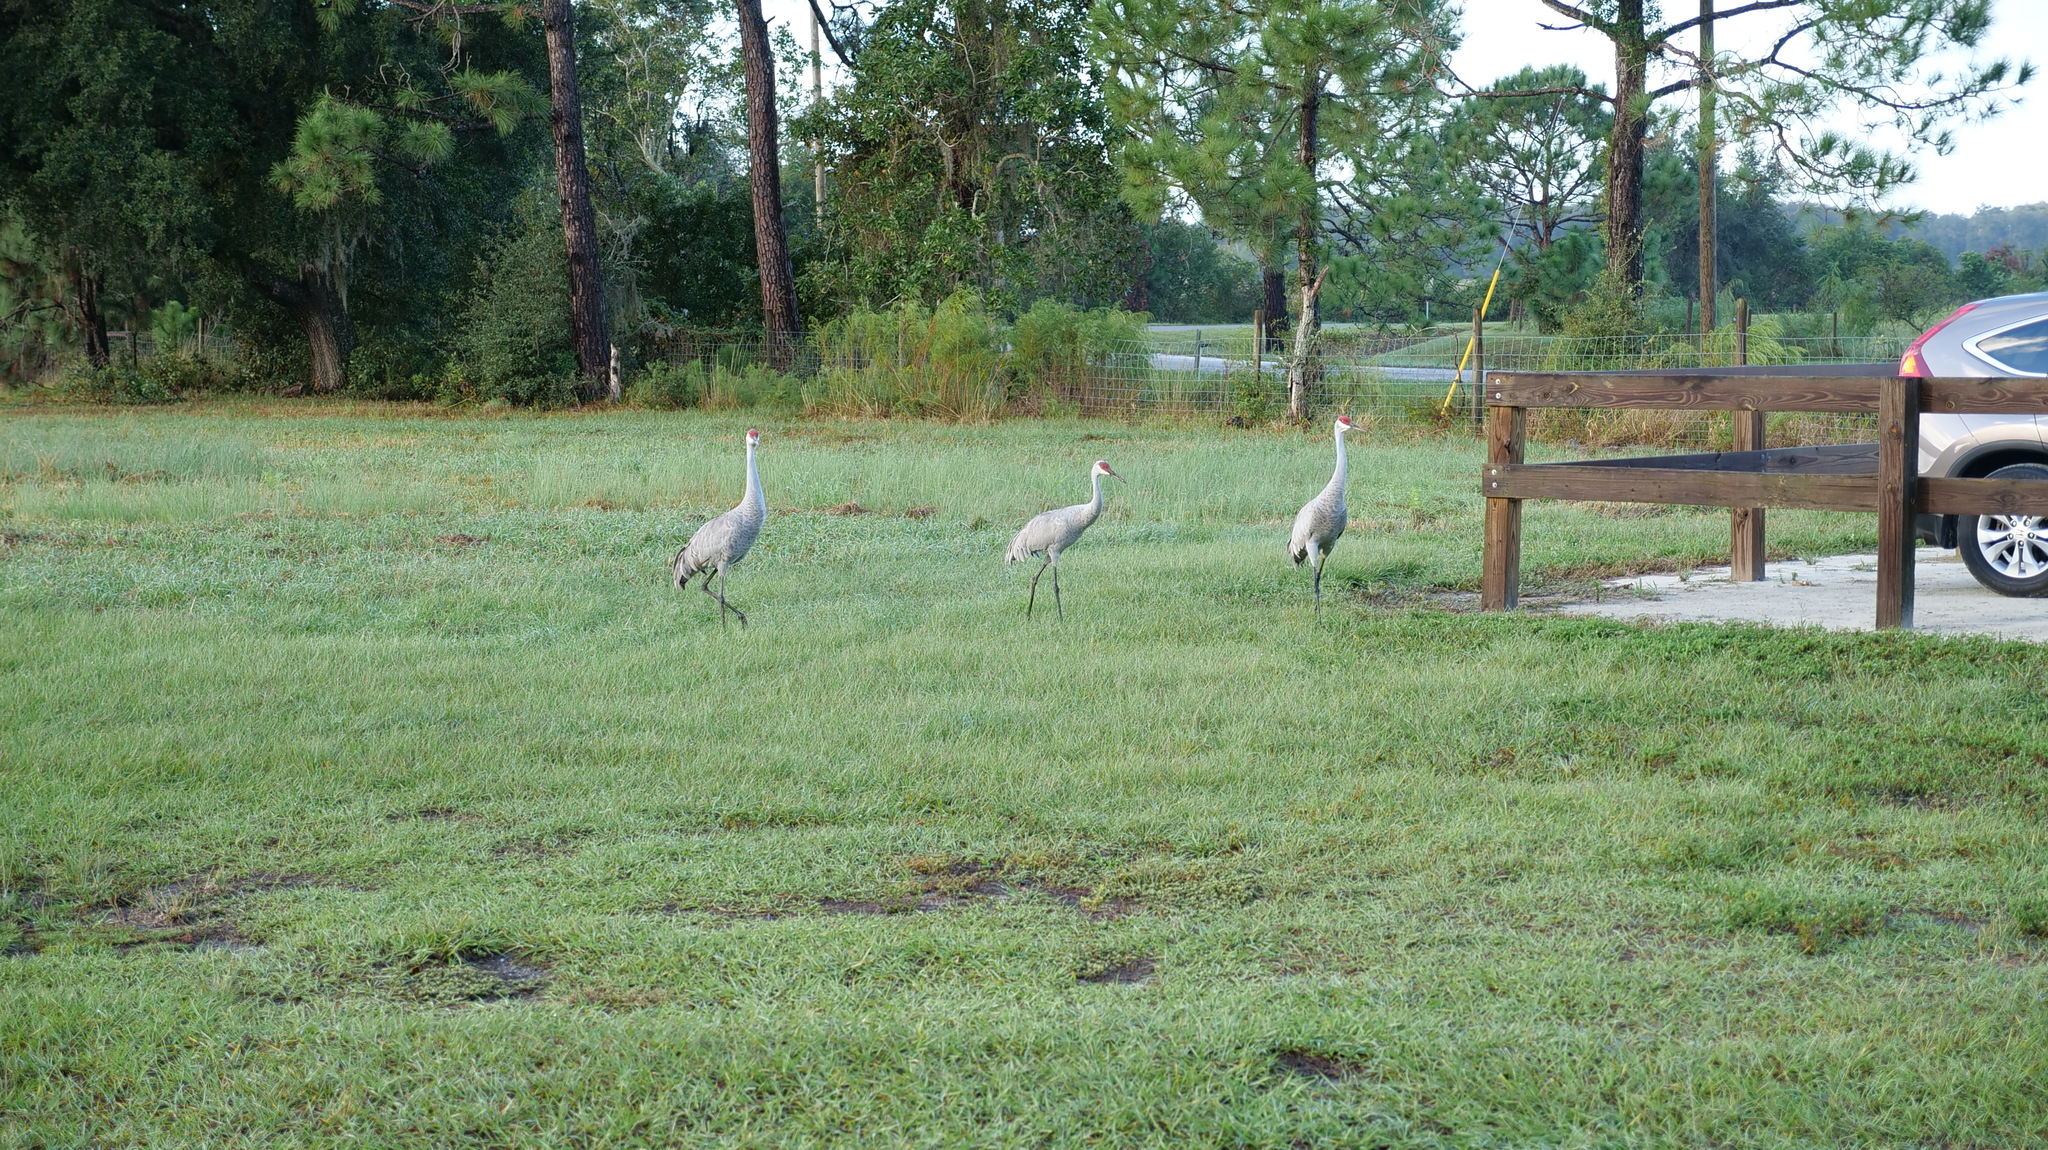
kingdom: Animalia
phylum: Chordata
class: Aves
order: Gruiformes
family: Gruidae
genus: Grus
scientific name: Grus canadensis
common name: Sandhill crane
